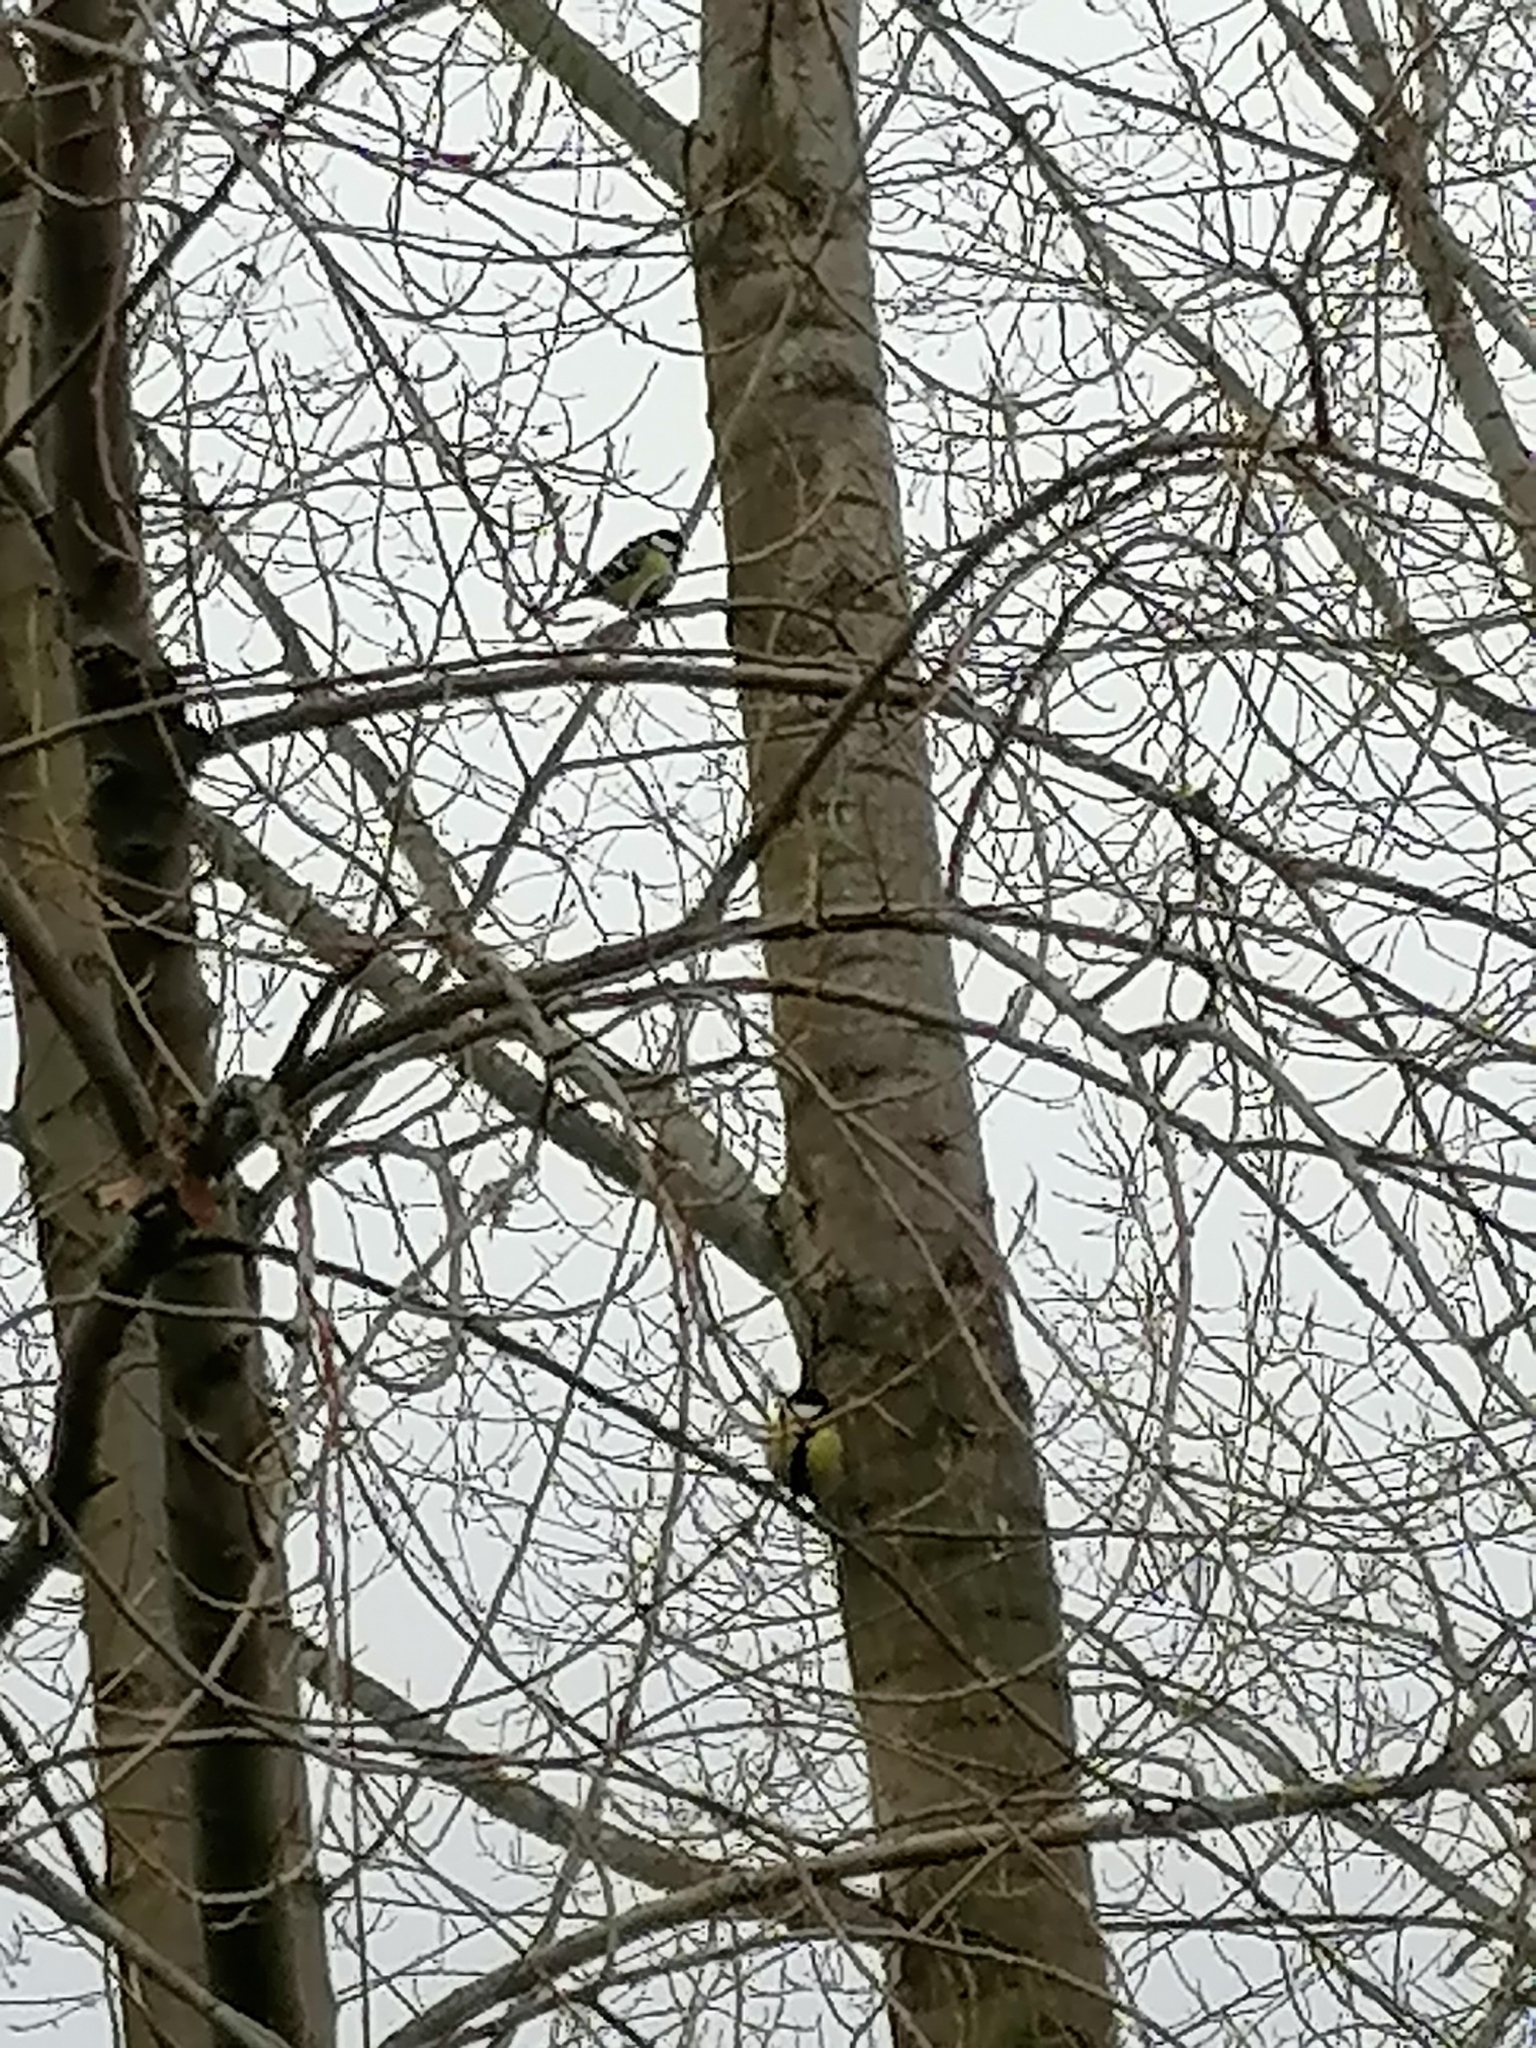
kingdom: Animalia
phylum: Chordata
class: Aves
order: Passeriformes
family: Paridae
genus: Parus
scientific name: Parus major
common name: Great tit
